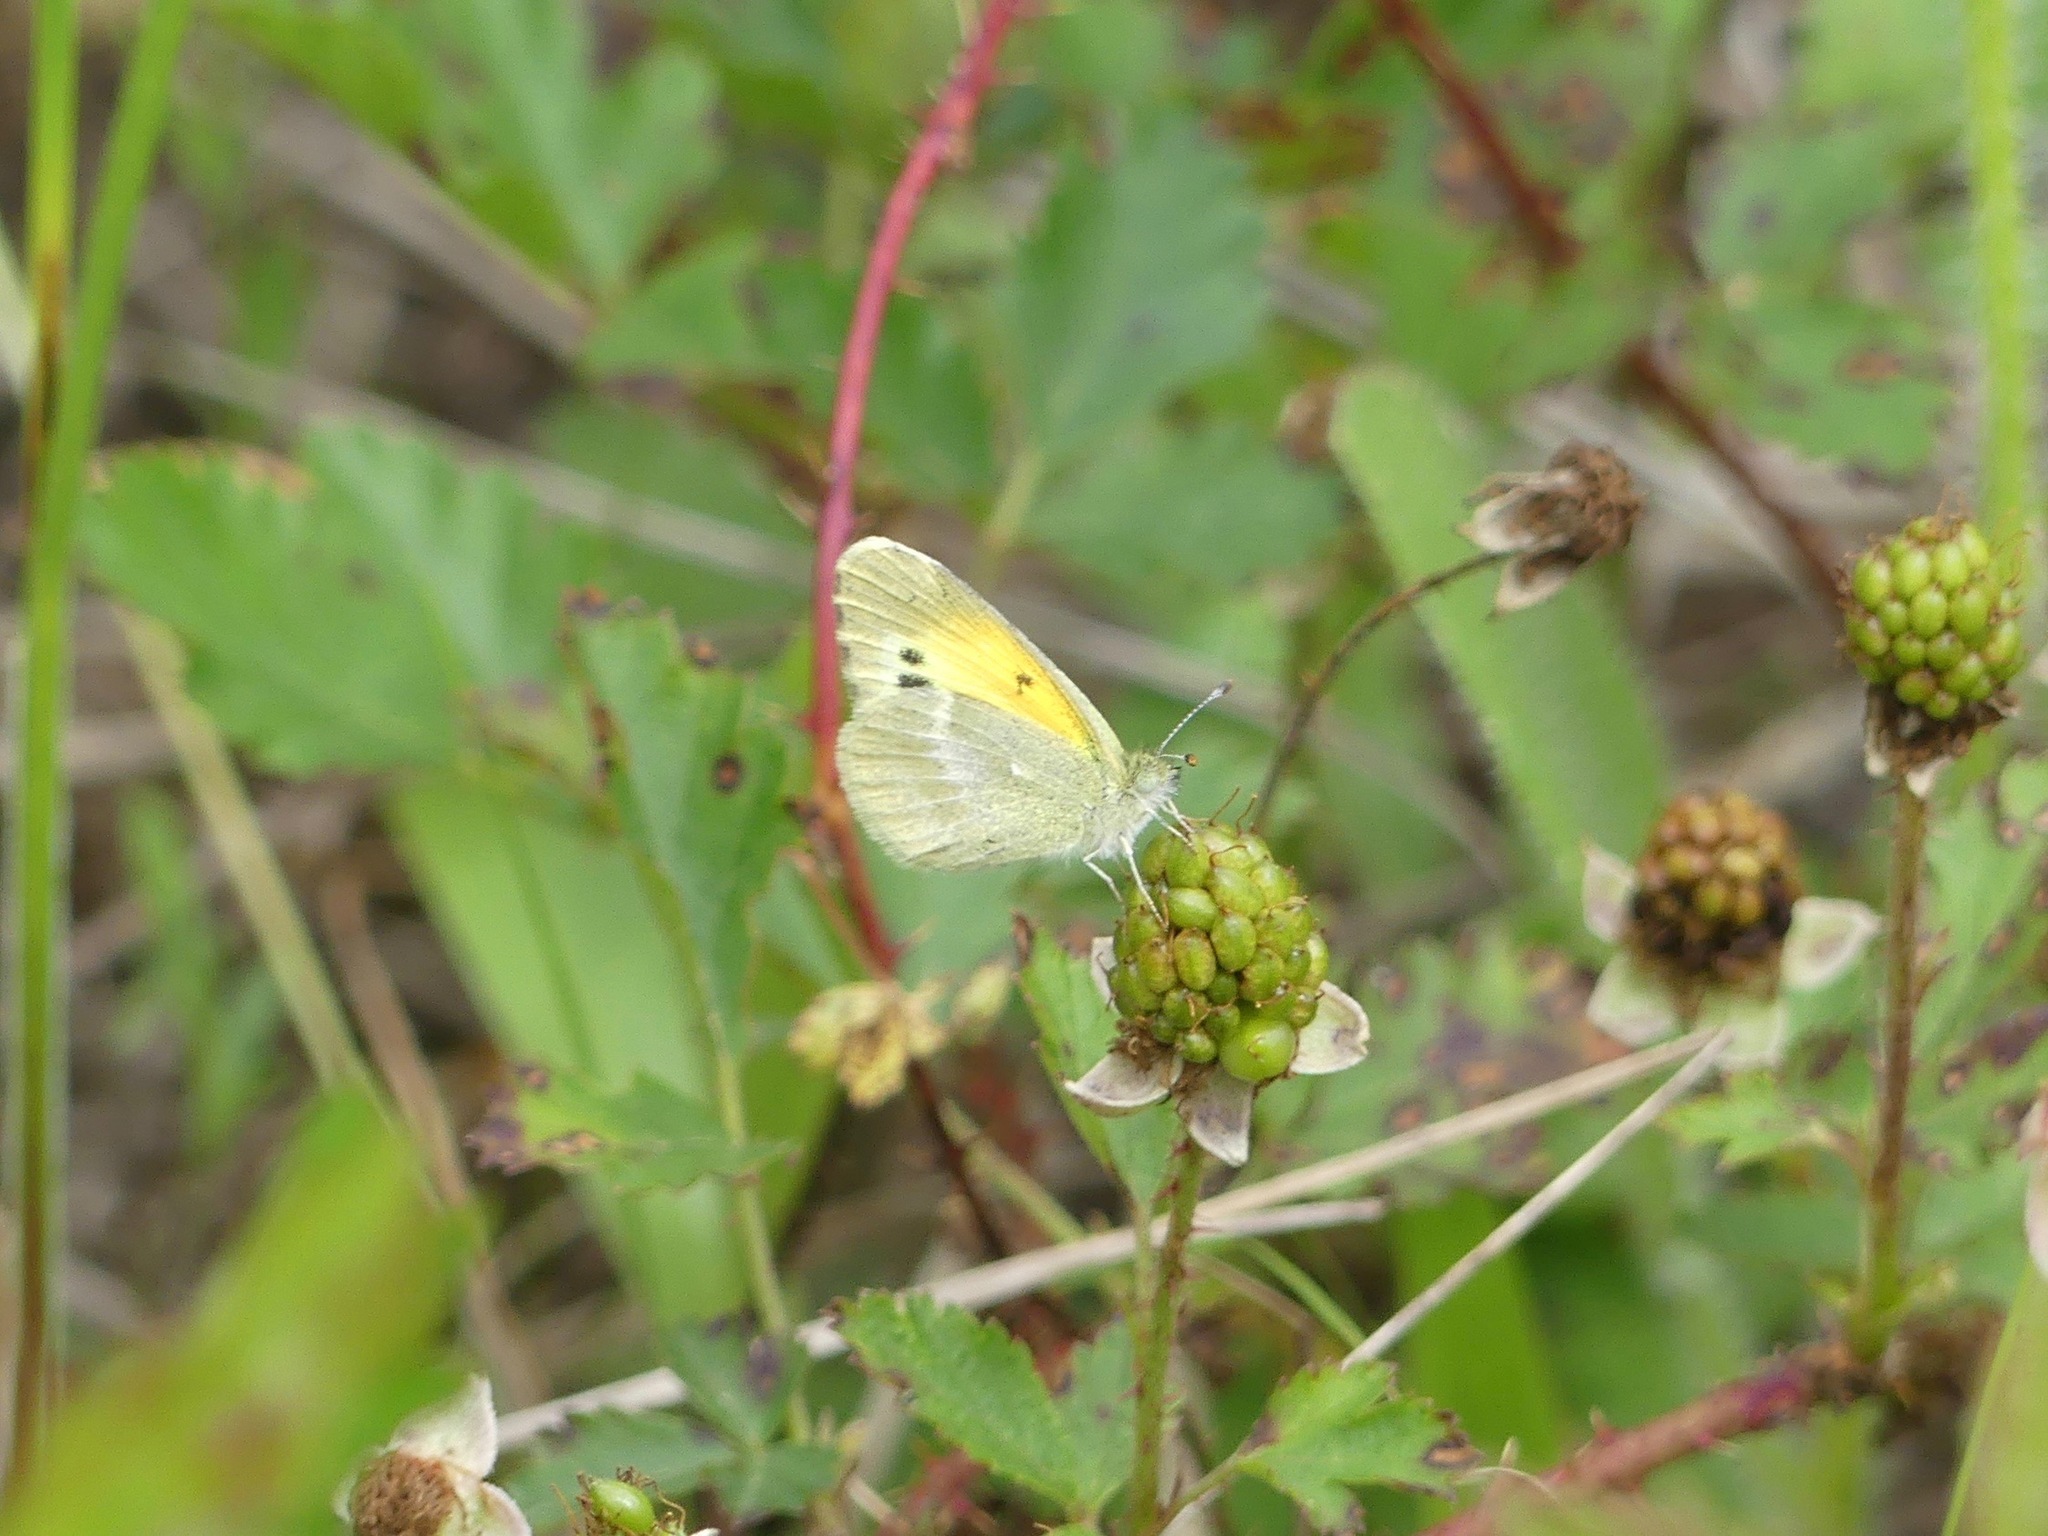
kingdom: Animalia
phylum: Arthropoda
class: Insecta
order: Lepidoptera
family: Pieridae
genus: Nathalis
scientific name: Nathalis iole
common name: Dainty sulphur
